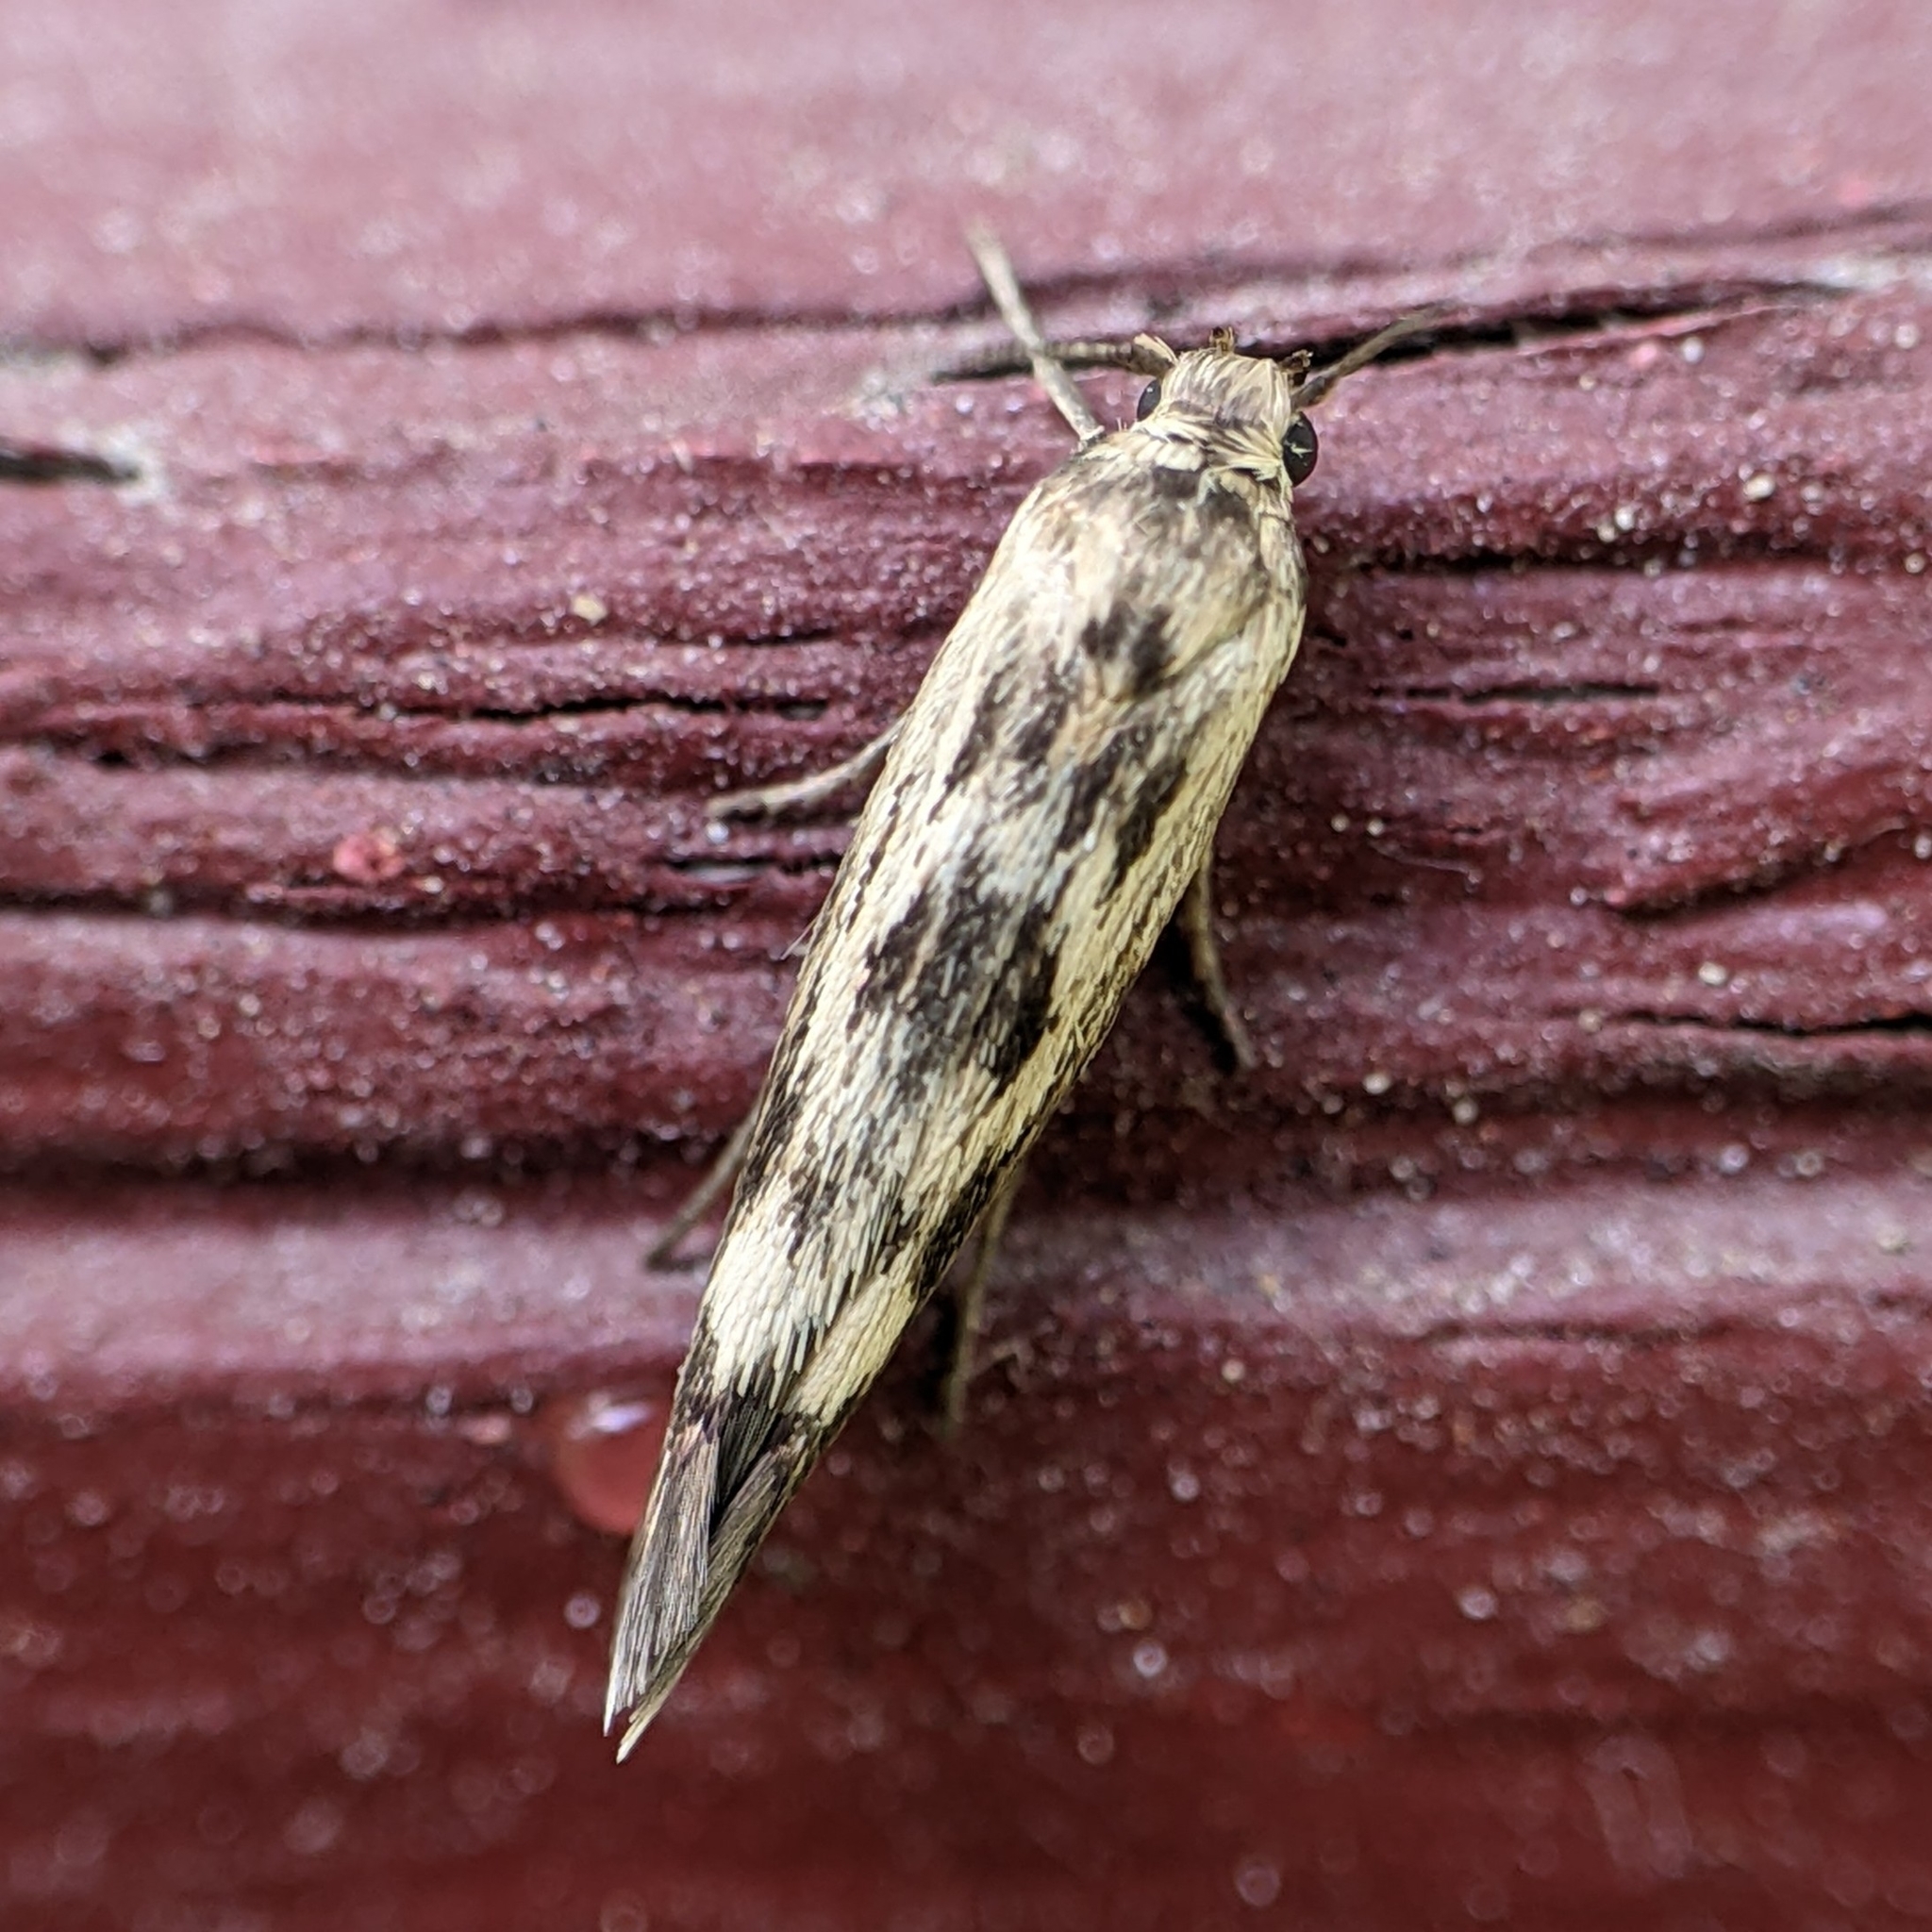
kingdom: Animalia
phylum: Arthropoda
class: Insecta
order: Lepidoptera
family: Scythrididae
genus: Scythris
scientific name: Scythris limbella
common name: Goosefoot owlet
